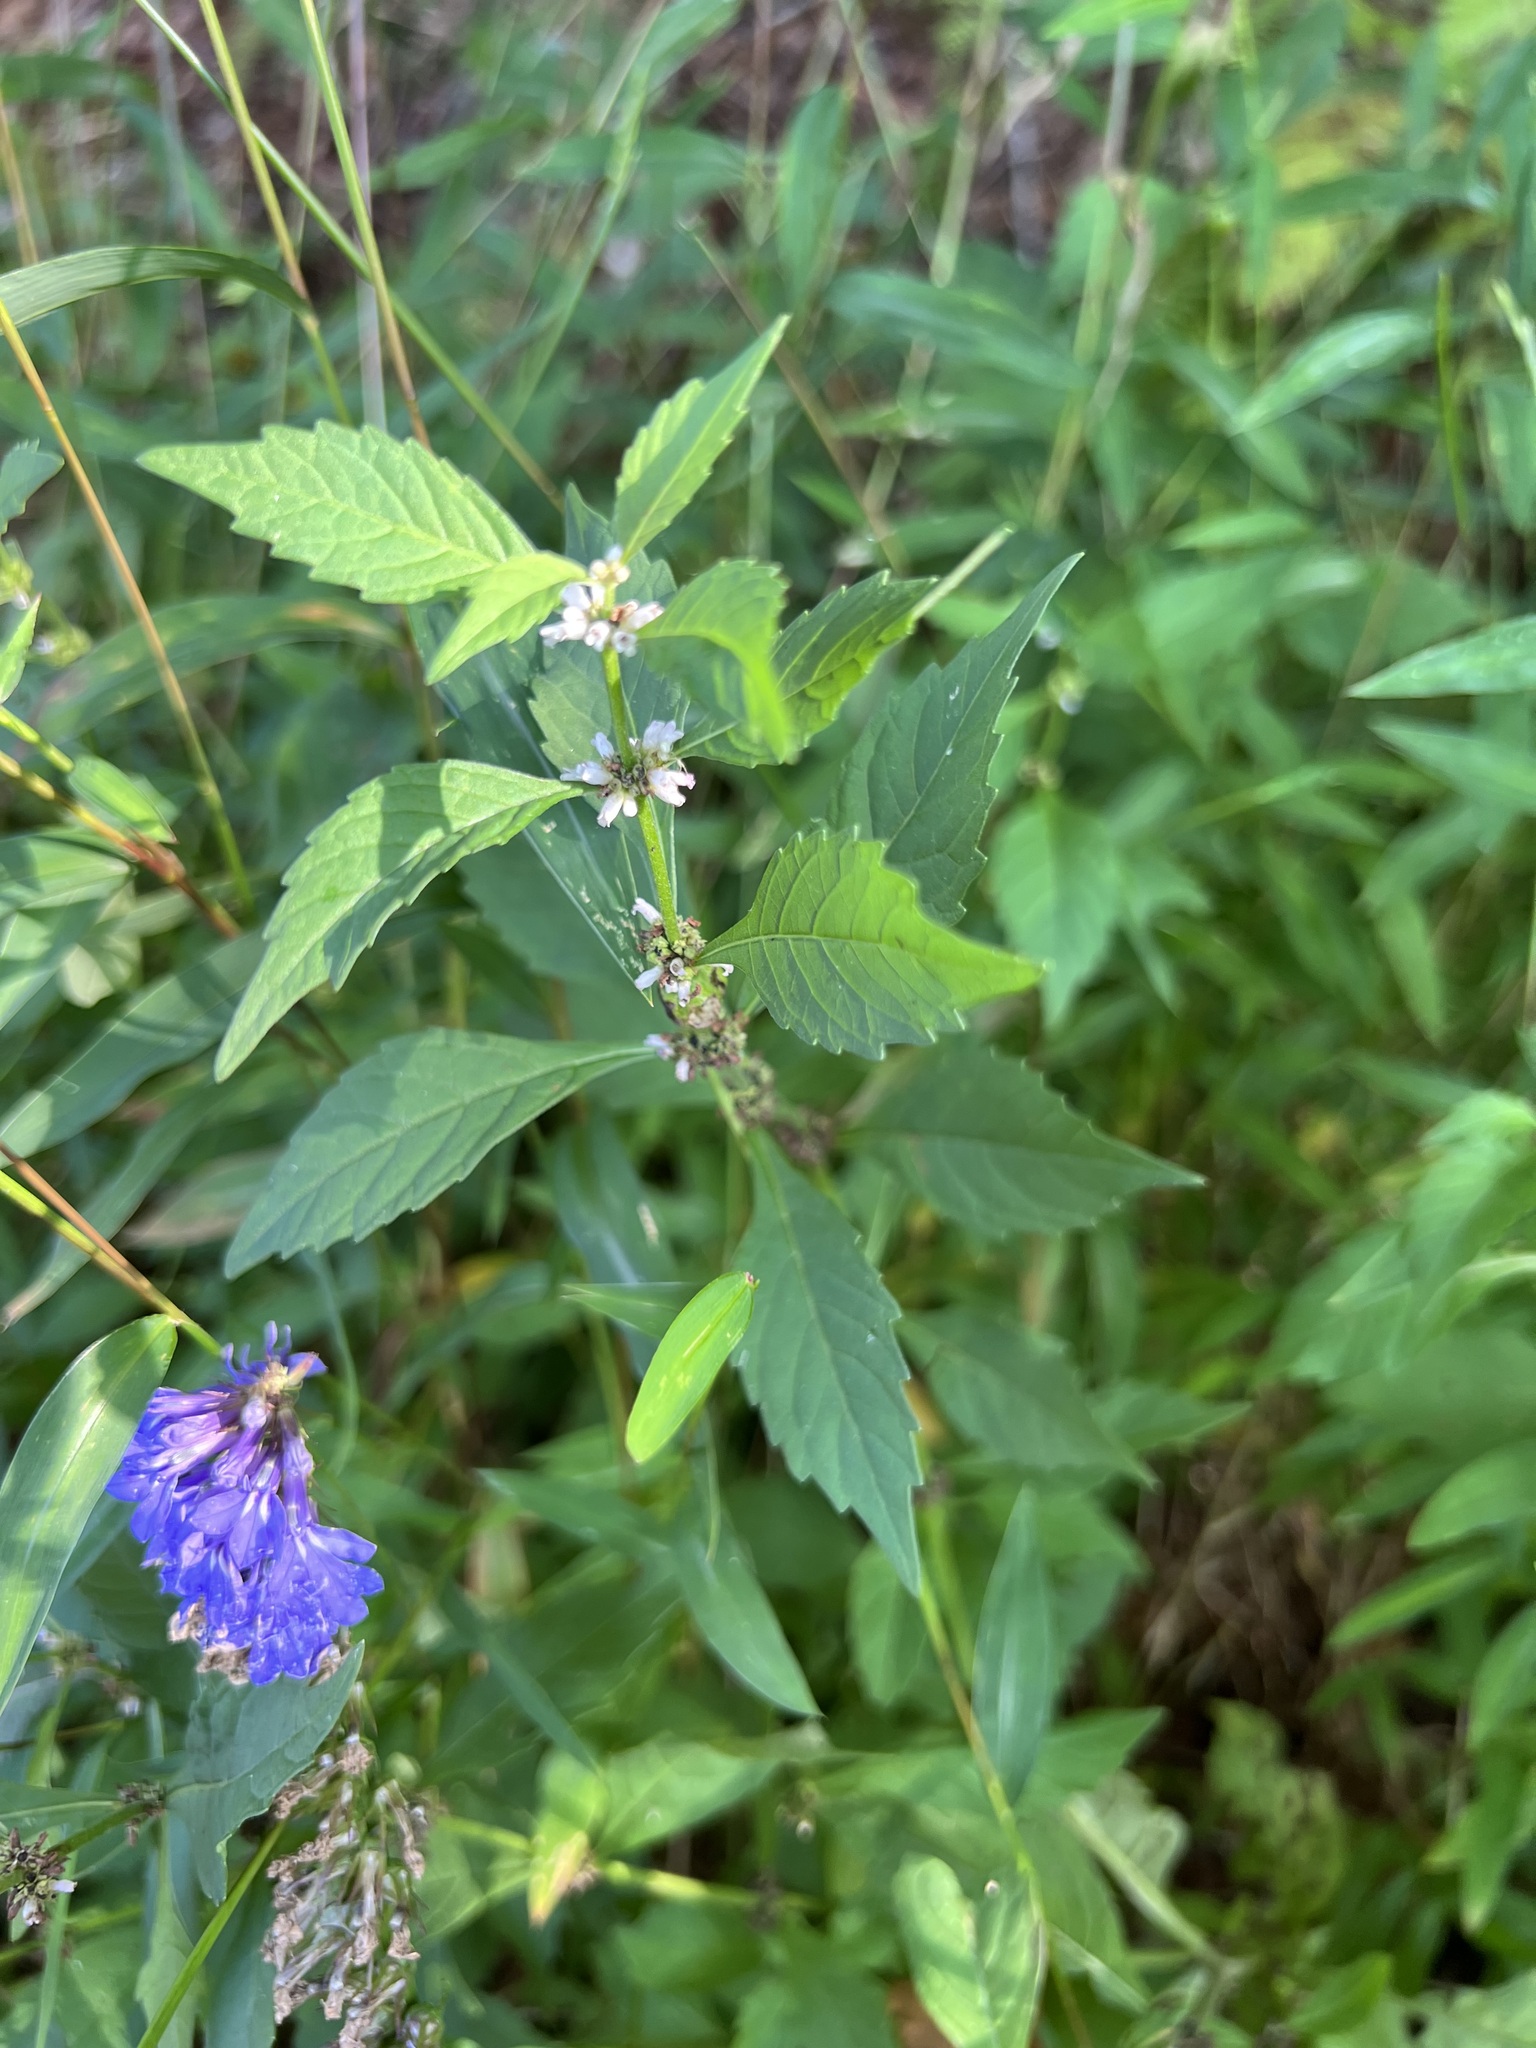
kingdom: Plantae
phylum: Tracheophyta
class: Magnoliopsida
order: Lamiales
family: Lamiaceae
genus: Lycopus
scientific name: Lycopus uniflorus
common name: Northern bugleweed
